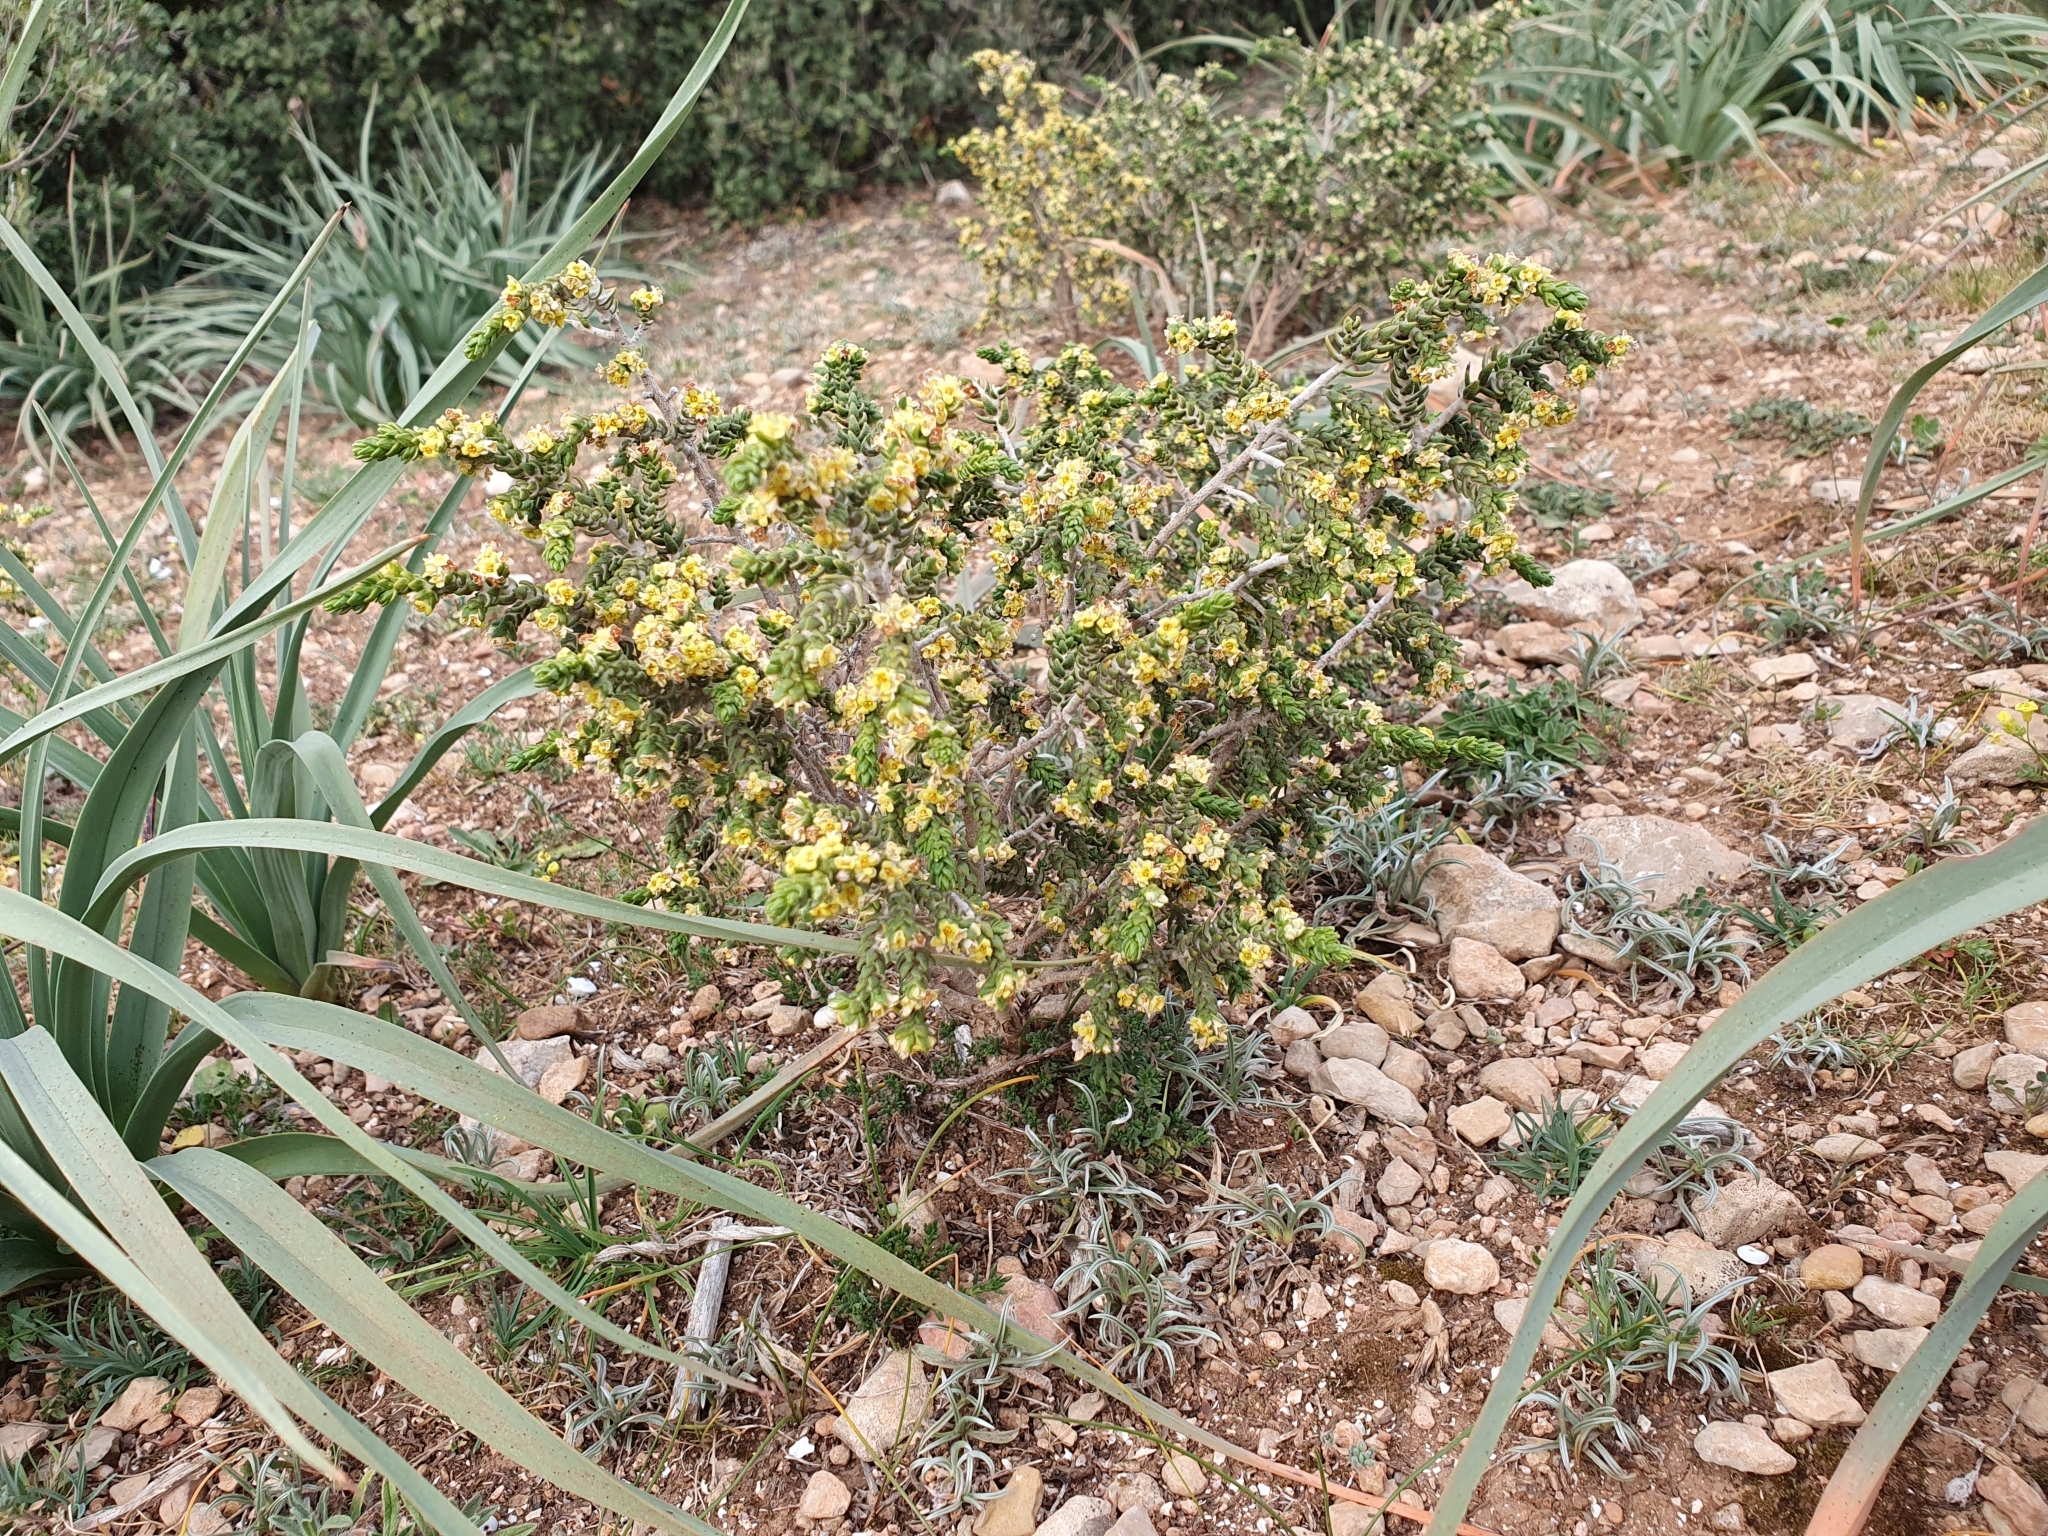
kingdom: Plantae
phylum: Tracheophyta
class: Magnoliopsida
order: Malvales
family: Thymelaeaceae
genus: Thymelaea
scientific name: Thymelaea hirsuta
